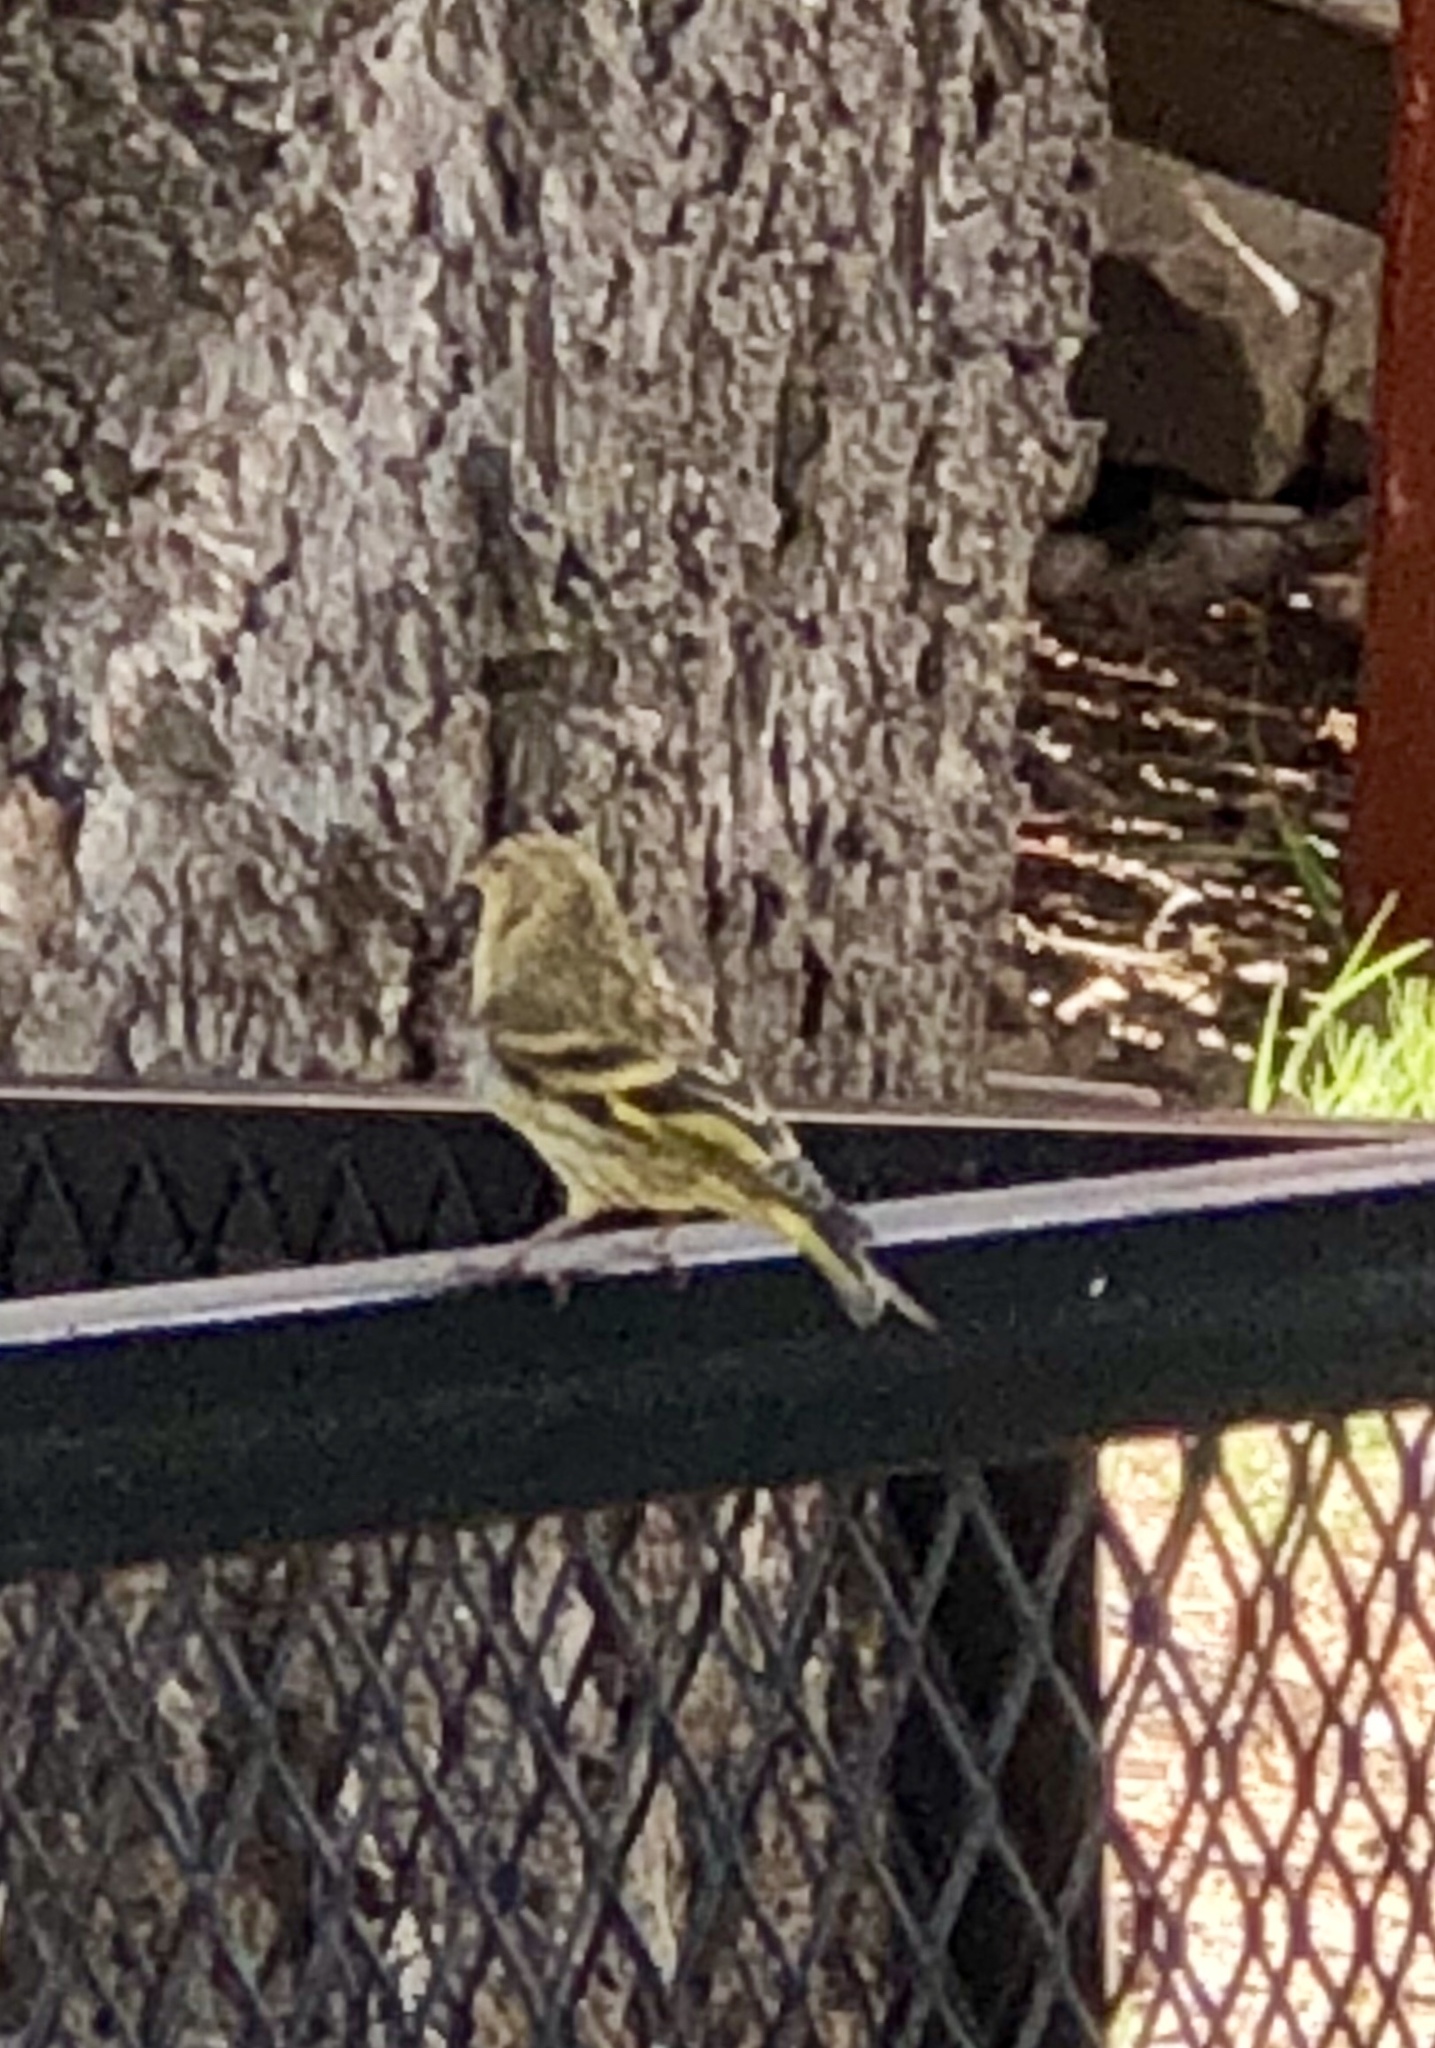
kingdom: Animalia
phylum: Chordata
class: Aves
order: Passeriformes
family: Fringillidae
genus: Spinus
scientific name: Spinus pinus
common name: Pine siskin
